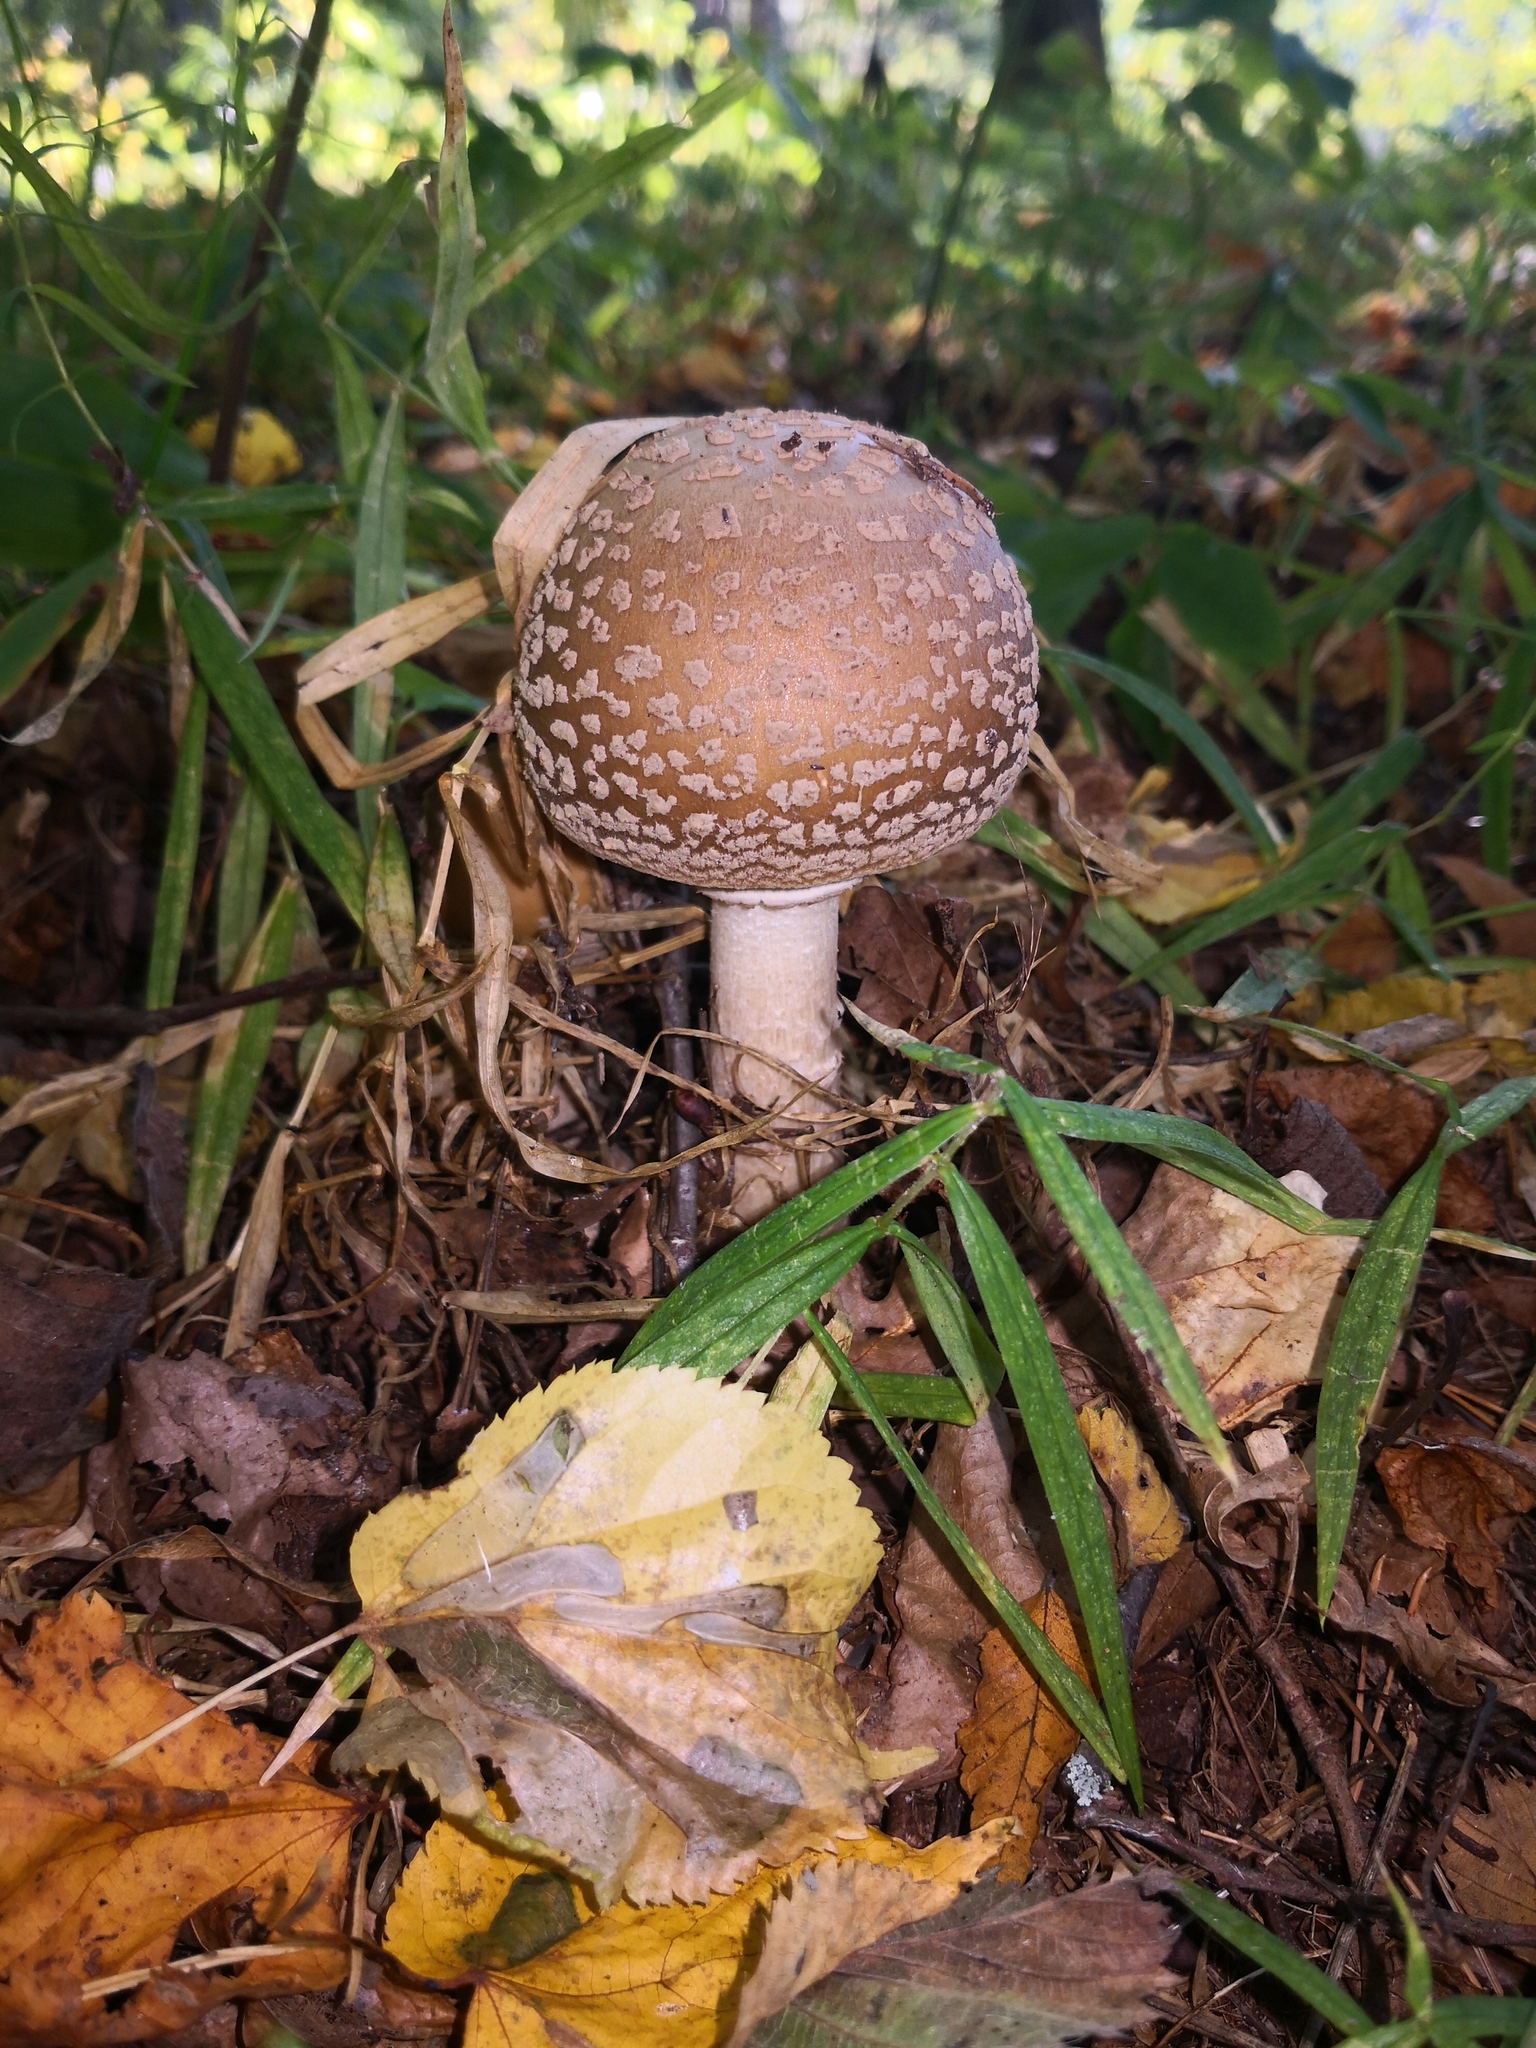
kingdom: Fungi
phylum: Basidiomycota
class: Agaricomycetes
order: Agaricales
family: Amanitaceae
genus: Amanita
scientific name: Amanita rubescens
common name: Blusher
